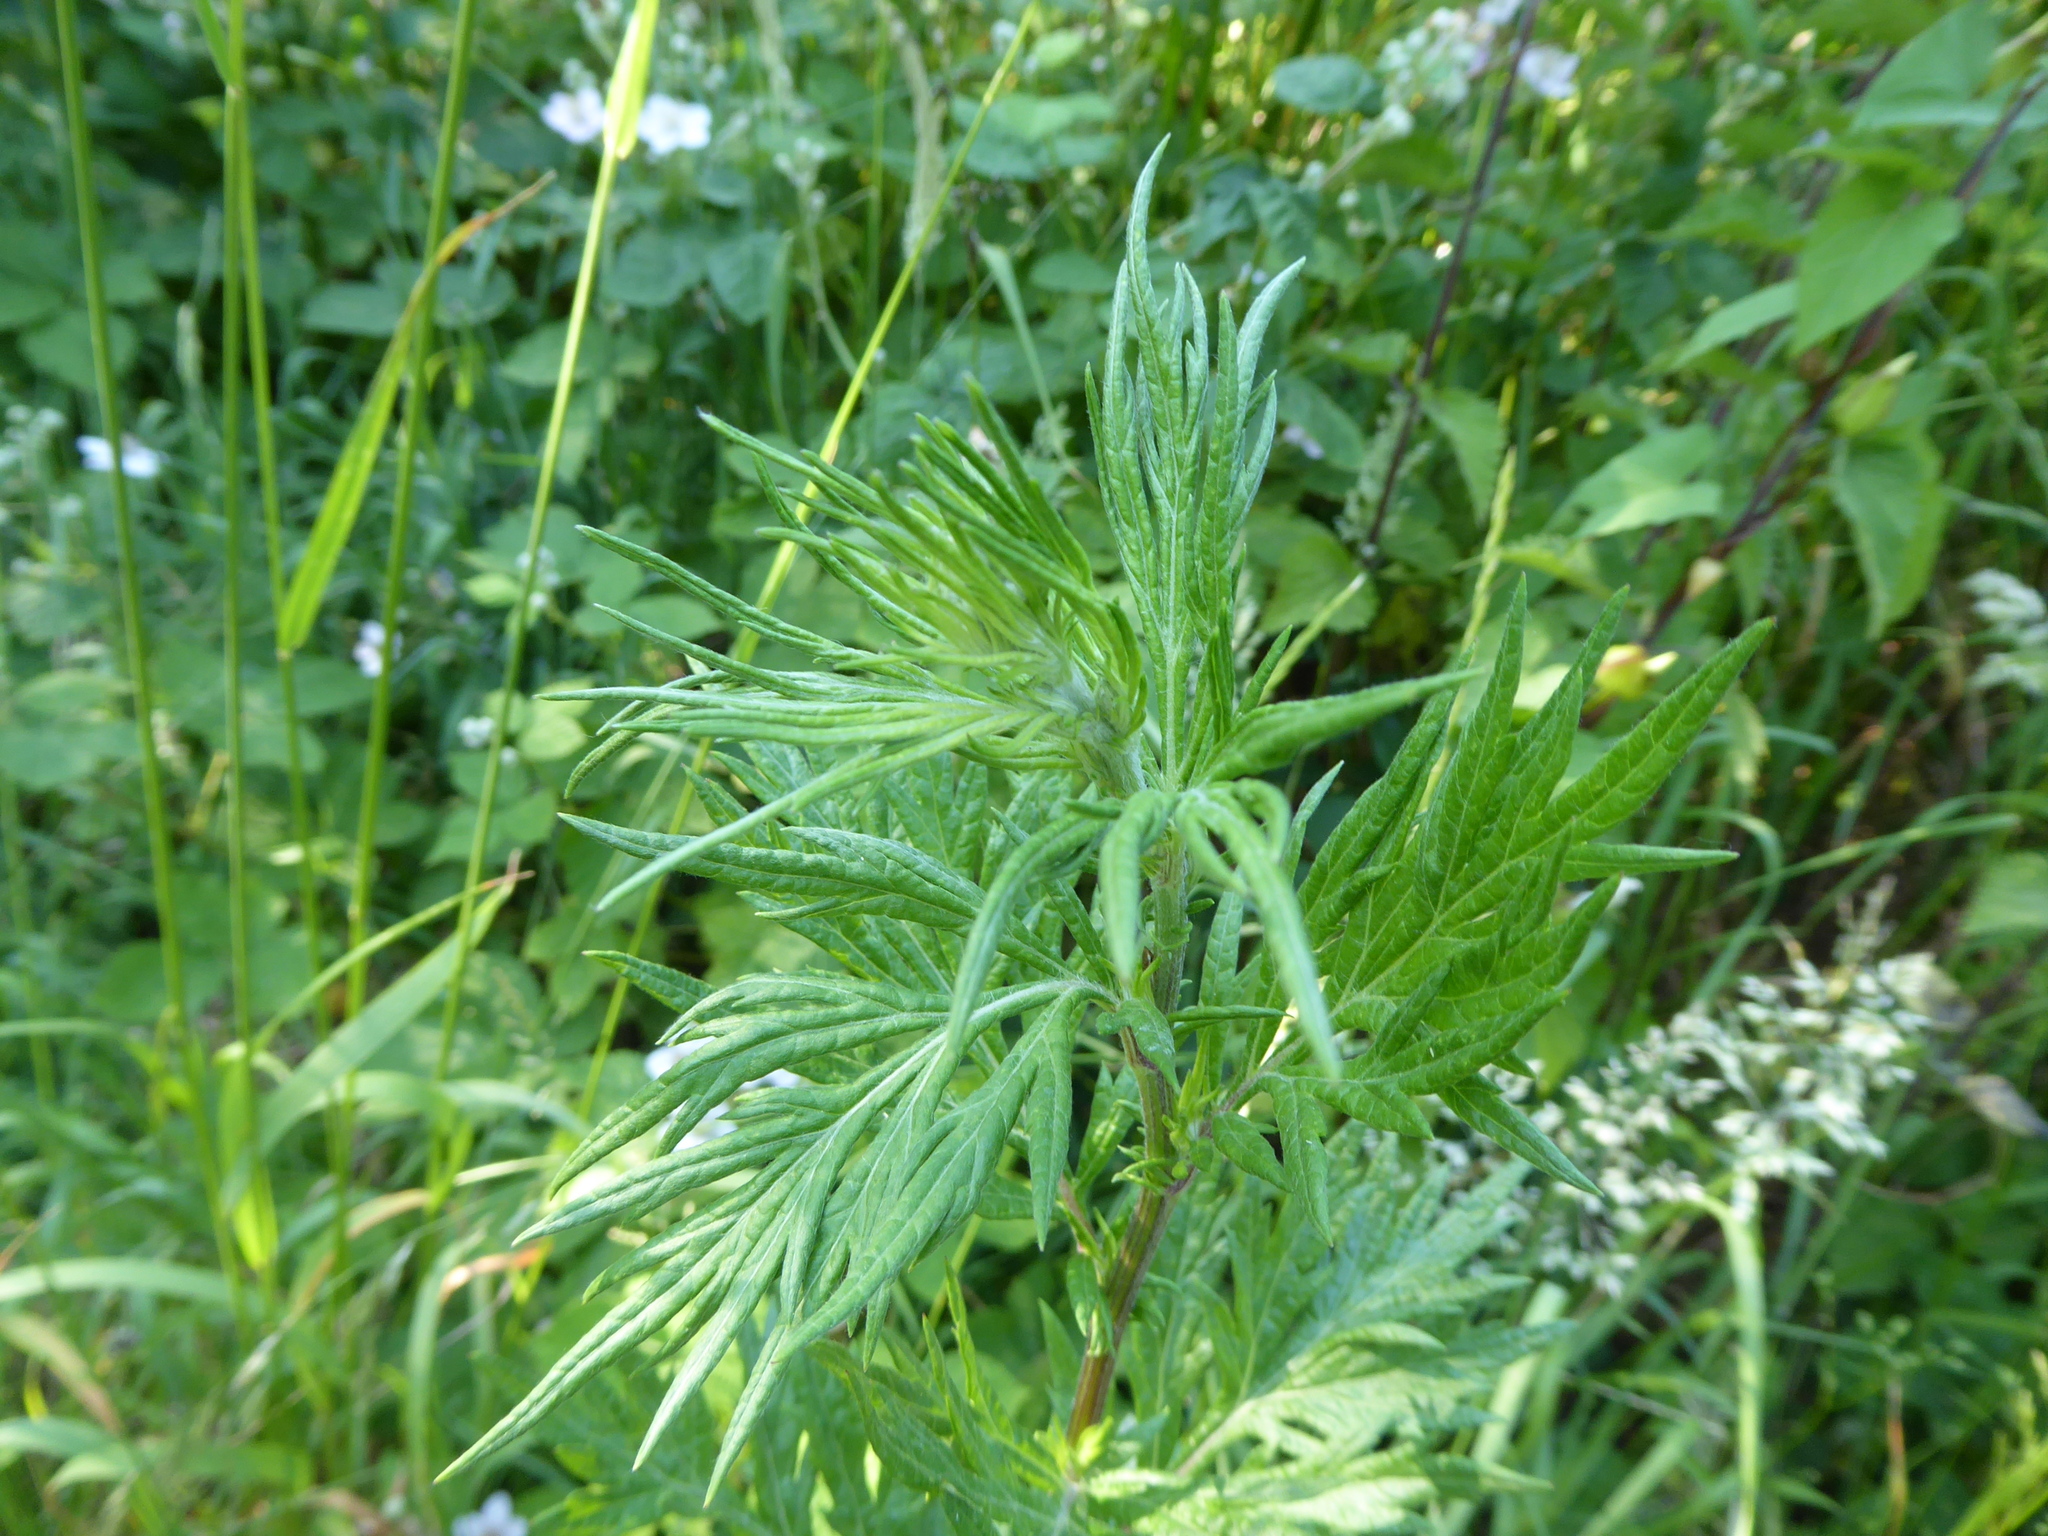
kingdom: Plantae
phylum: Tracheophyta
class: Magnoliopsida
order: Asterales
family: Asteraceae
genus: Artemisia
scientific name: Artemisia vulgaris
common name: Mugwort
